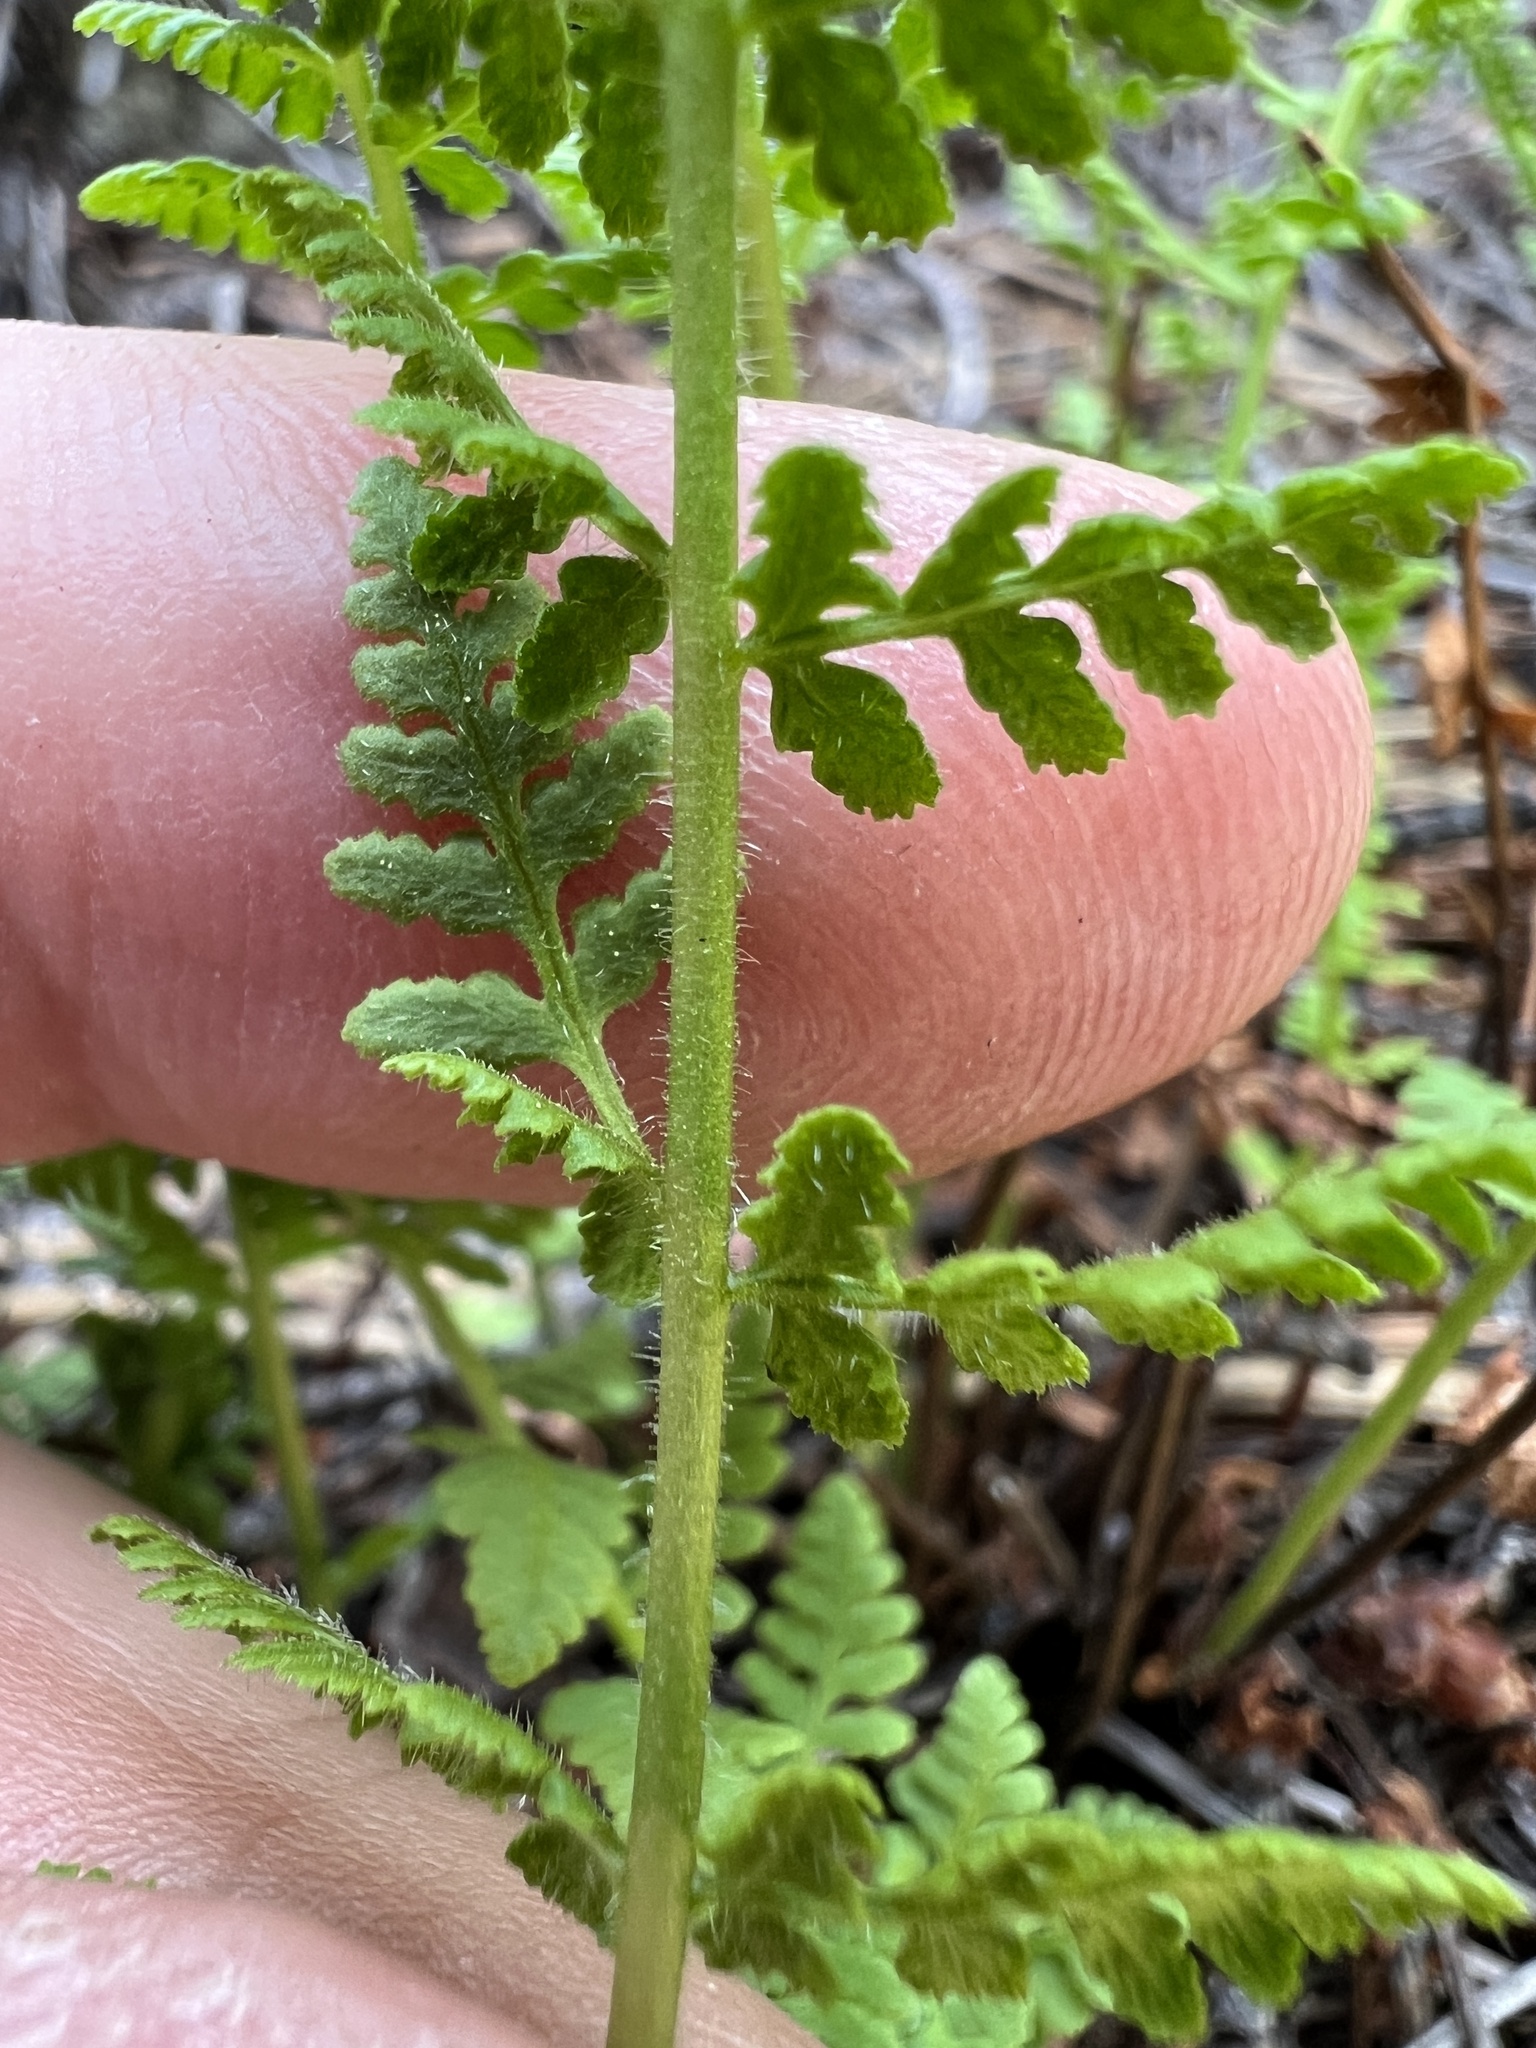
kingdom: Plantae
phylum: Tracheophyta
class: Polypodiopsida
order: Polypodiales
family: Woodsiaceae
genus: Physematium
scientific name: Physematium scopulinum
